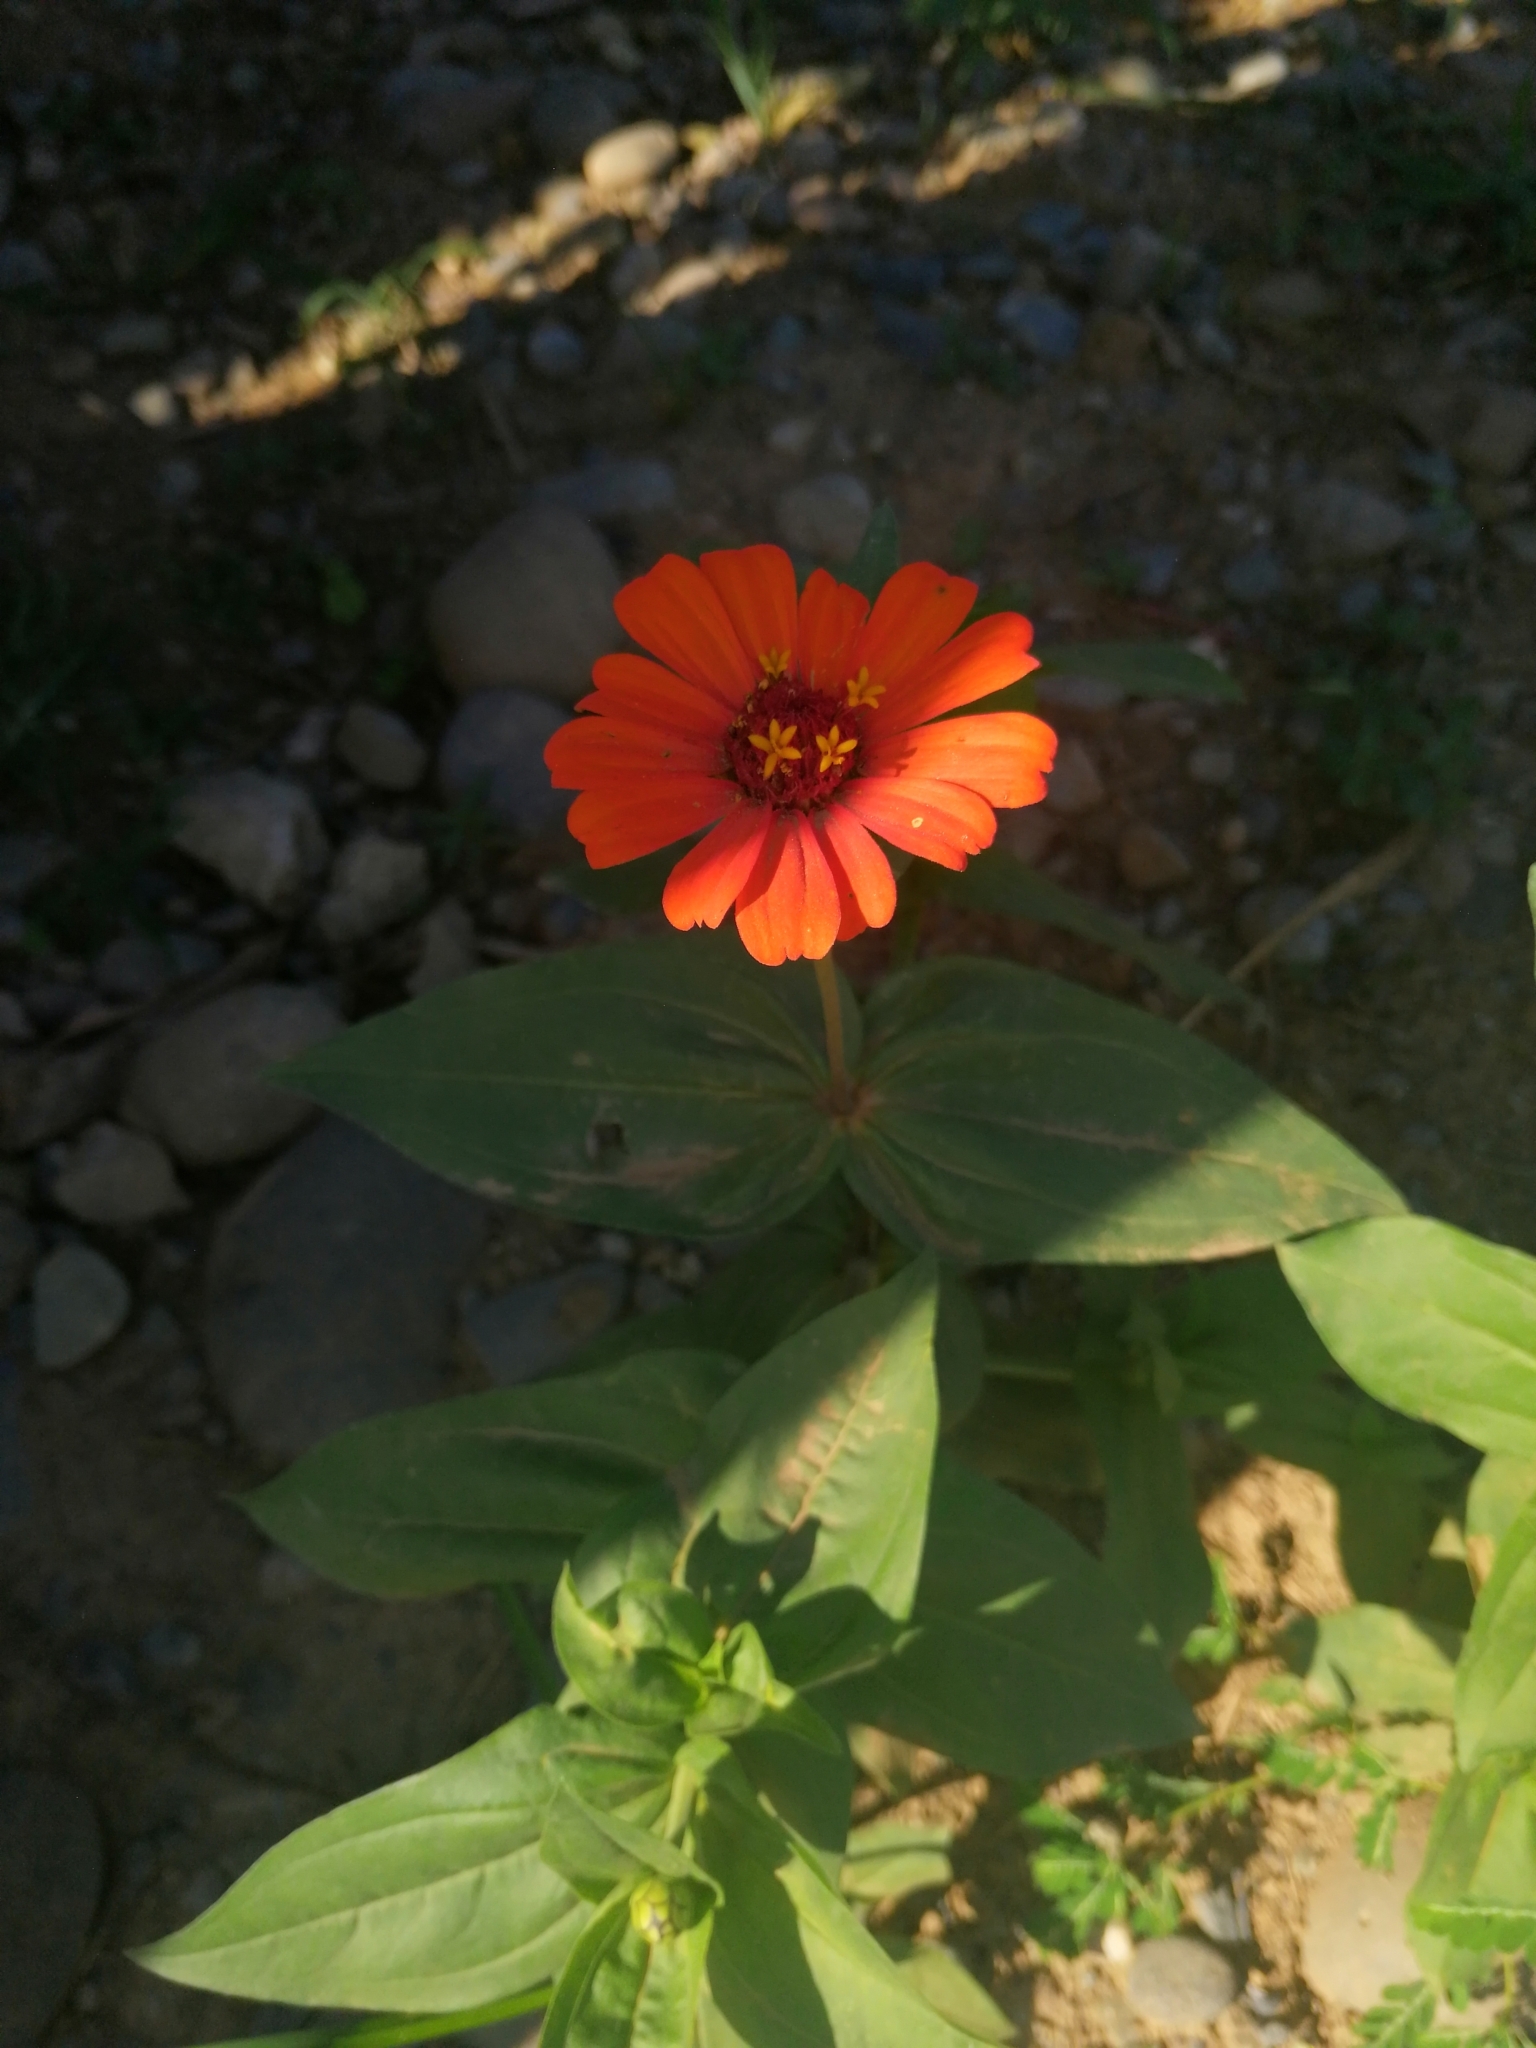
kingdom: Plantae
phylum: Tracheophyta
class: Magnoliopsida
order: Asterales
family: Asteraceae
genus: Zinnia
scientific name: Zinnia elegans
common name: Youth-and-age
